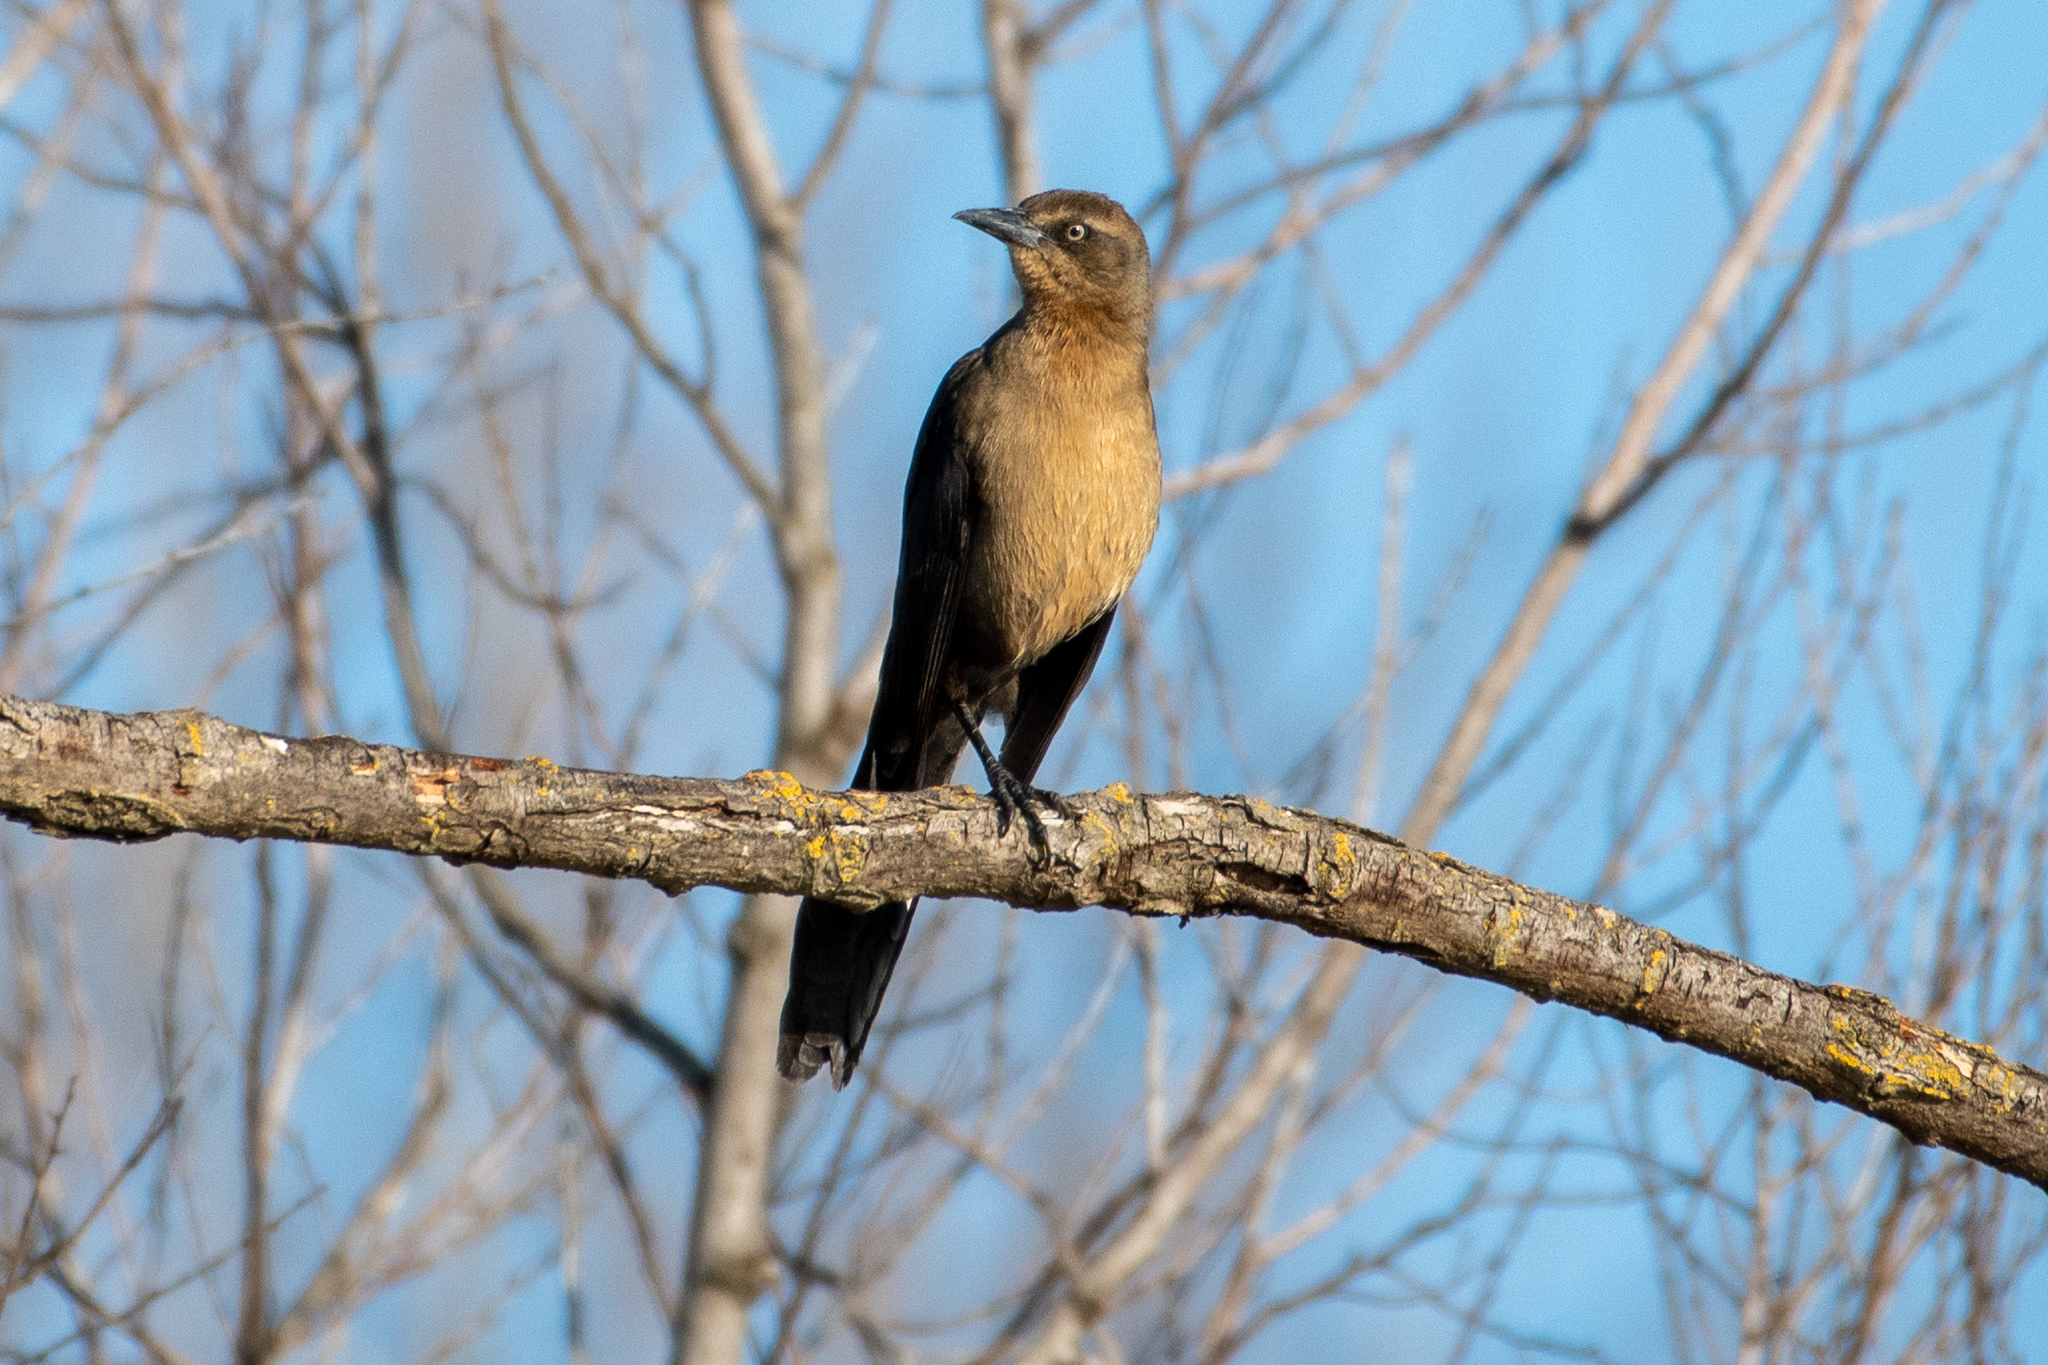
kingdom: Animalia
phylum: Chordata
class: Aves
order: Passeriformes
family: Icteridae
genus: Quiscalus
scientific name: Quiscalus mexicanus
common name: Great-tailed grackle
